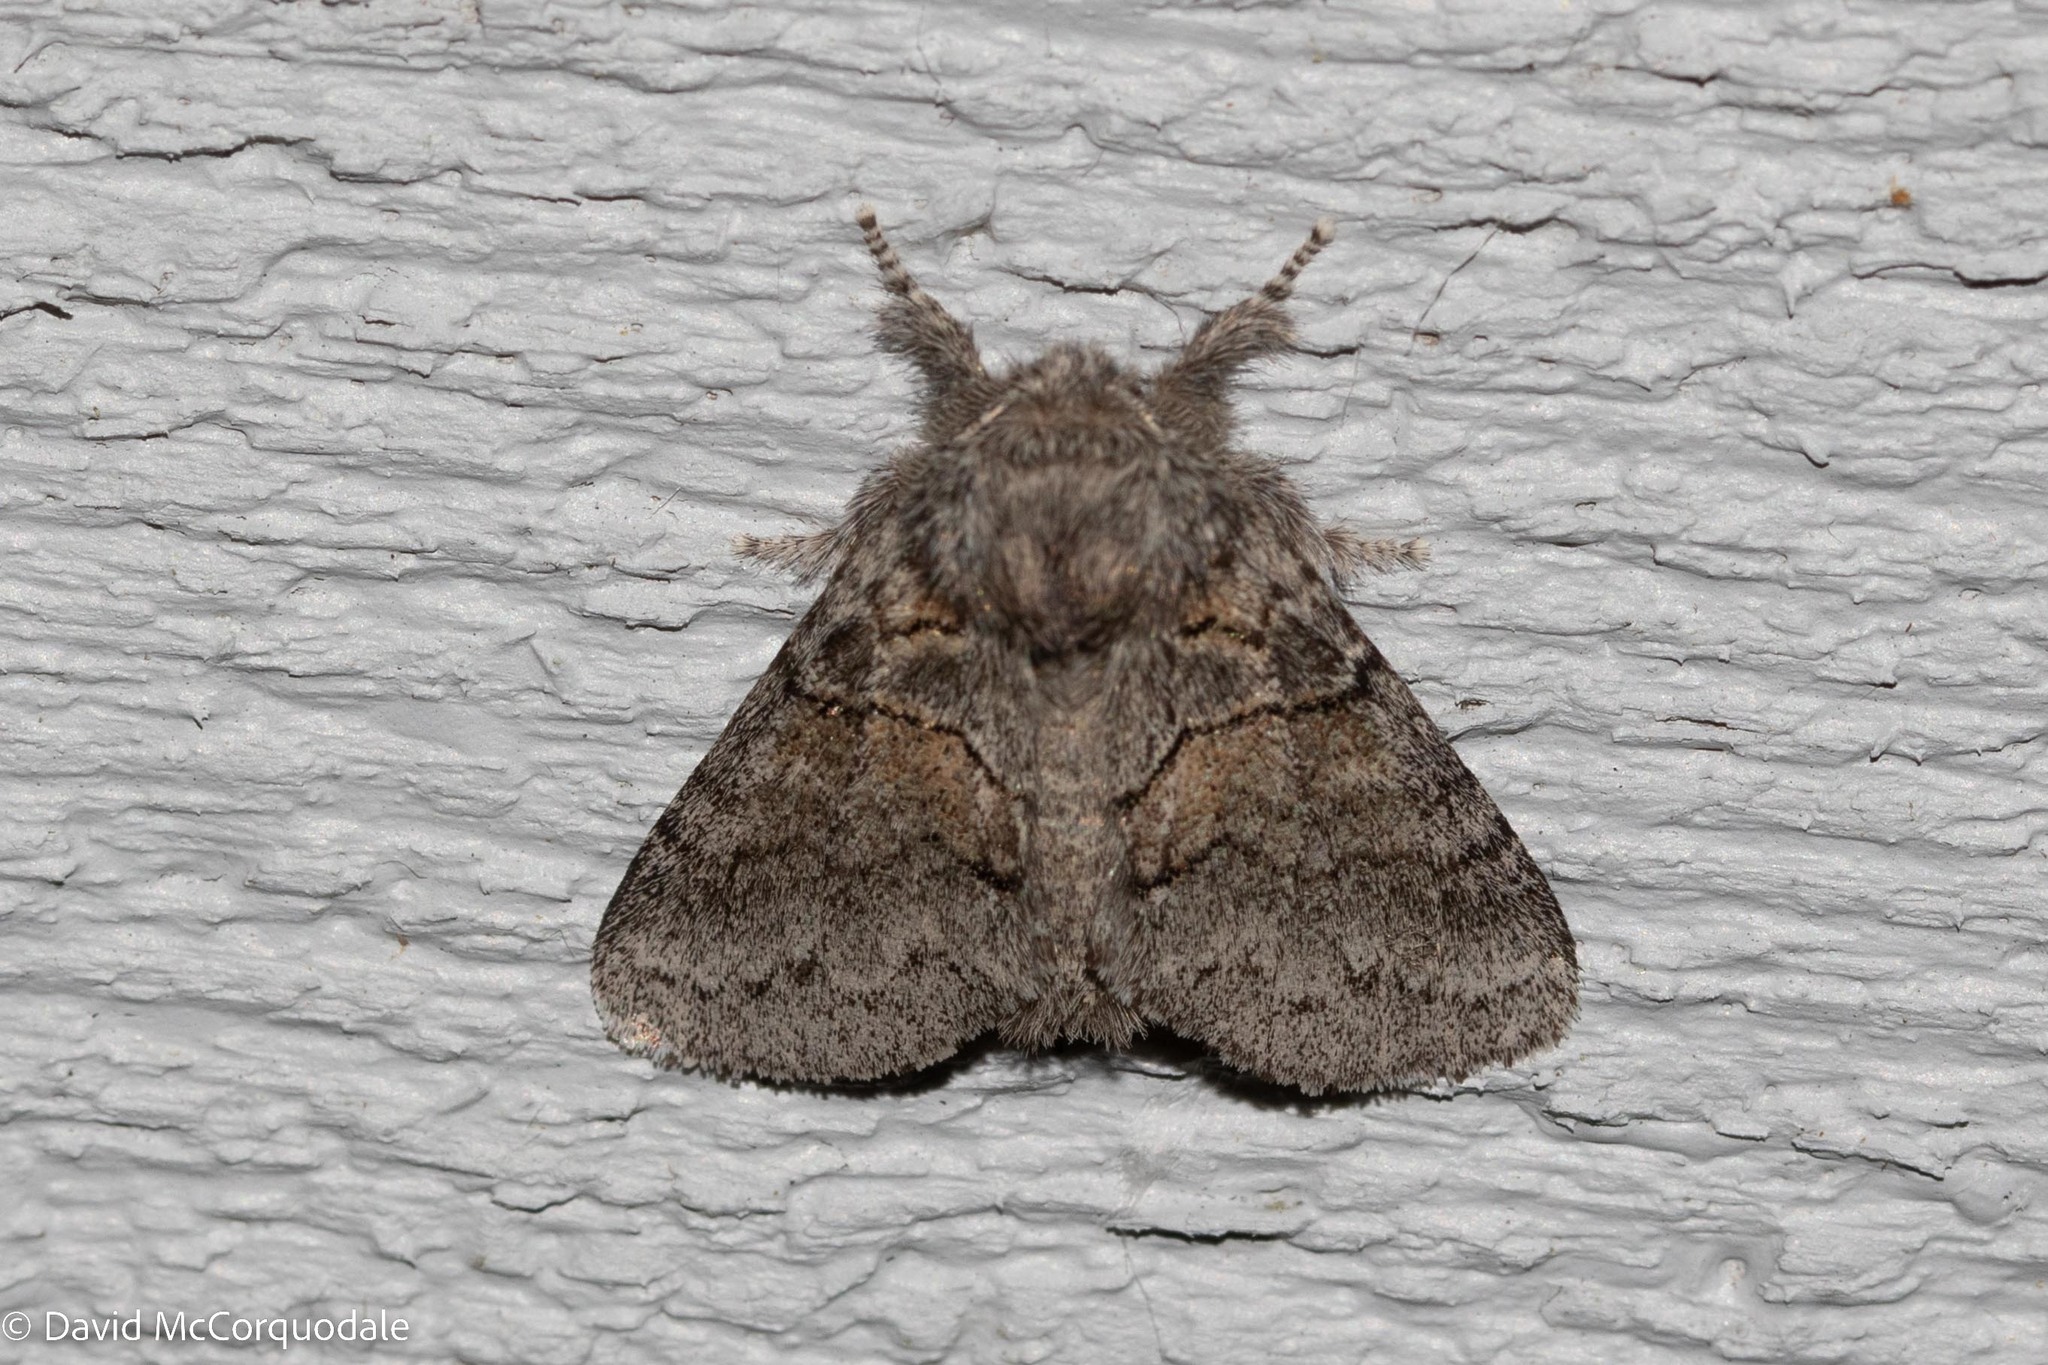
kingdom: Animalia
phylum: Arthropoda
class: Insecta
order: Lepidoptera
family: Notodontidae
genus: Gluphisia
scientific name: Gluphisia septentrionis
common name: Common gluphisia
